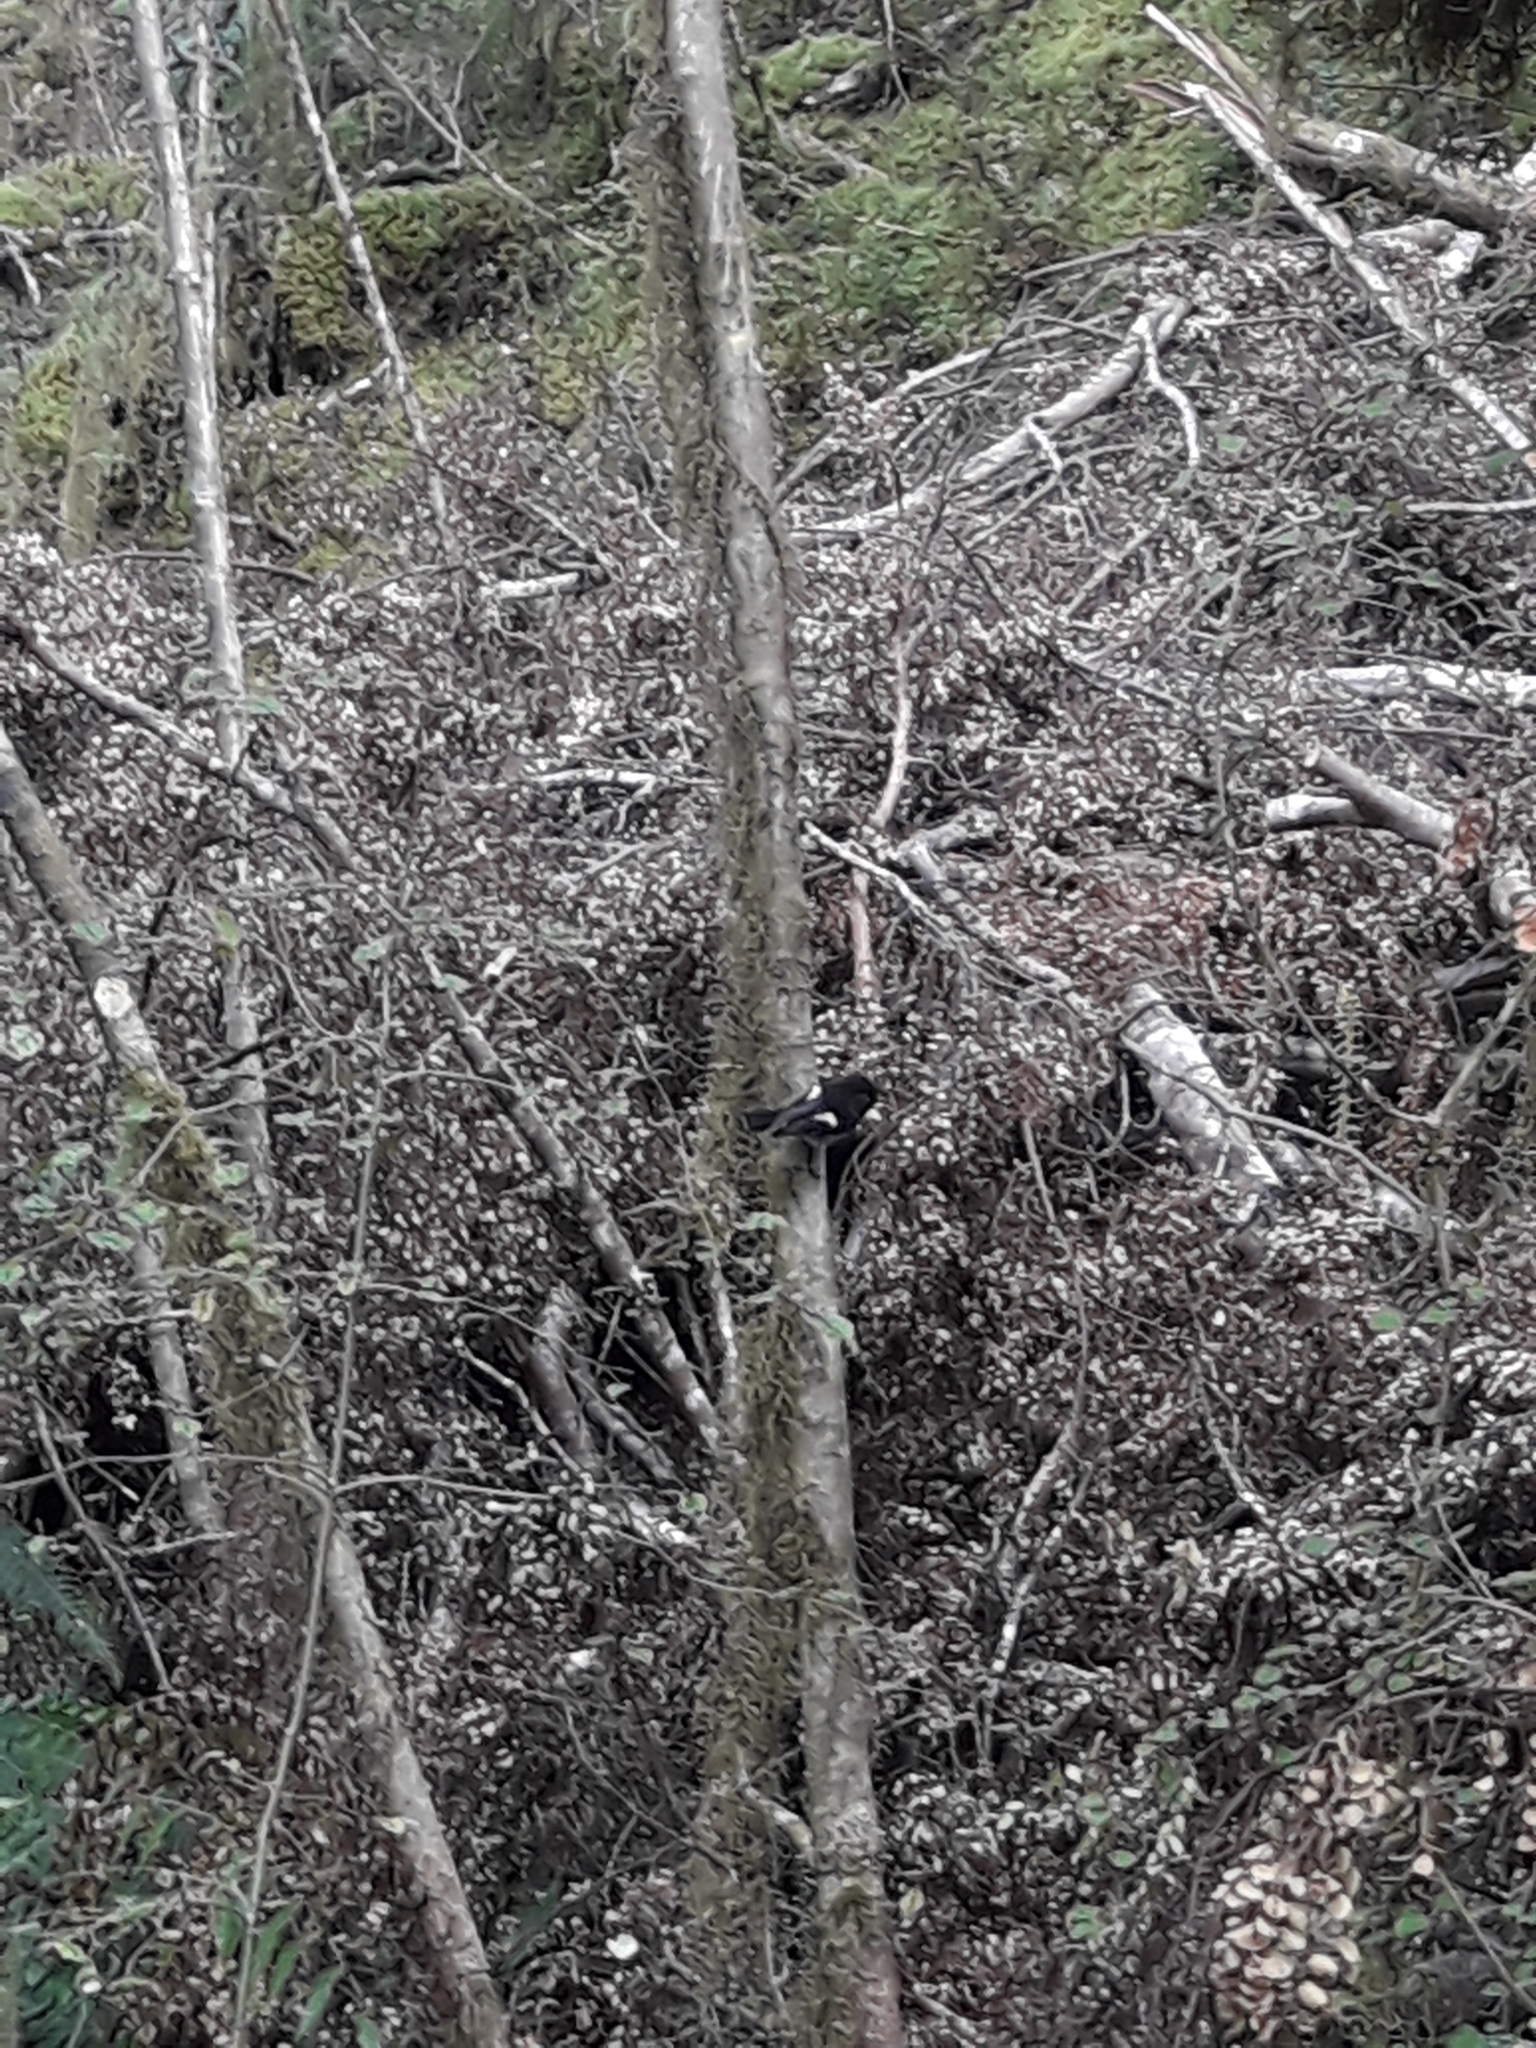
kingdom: Animalia
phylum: Chordata
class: Aves
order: Passeriformes
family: Petroicidae
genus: Petroica
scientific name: Petroica macrocephala
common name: Tomtit
